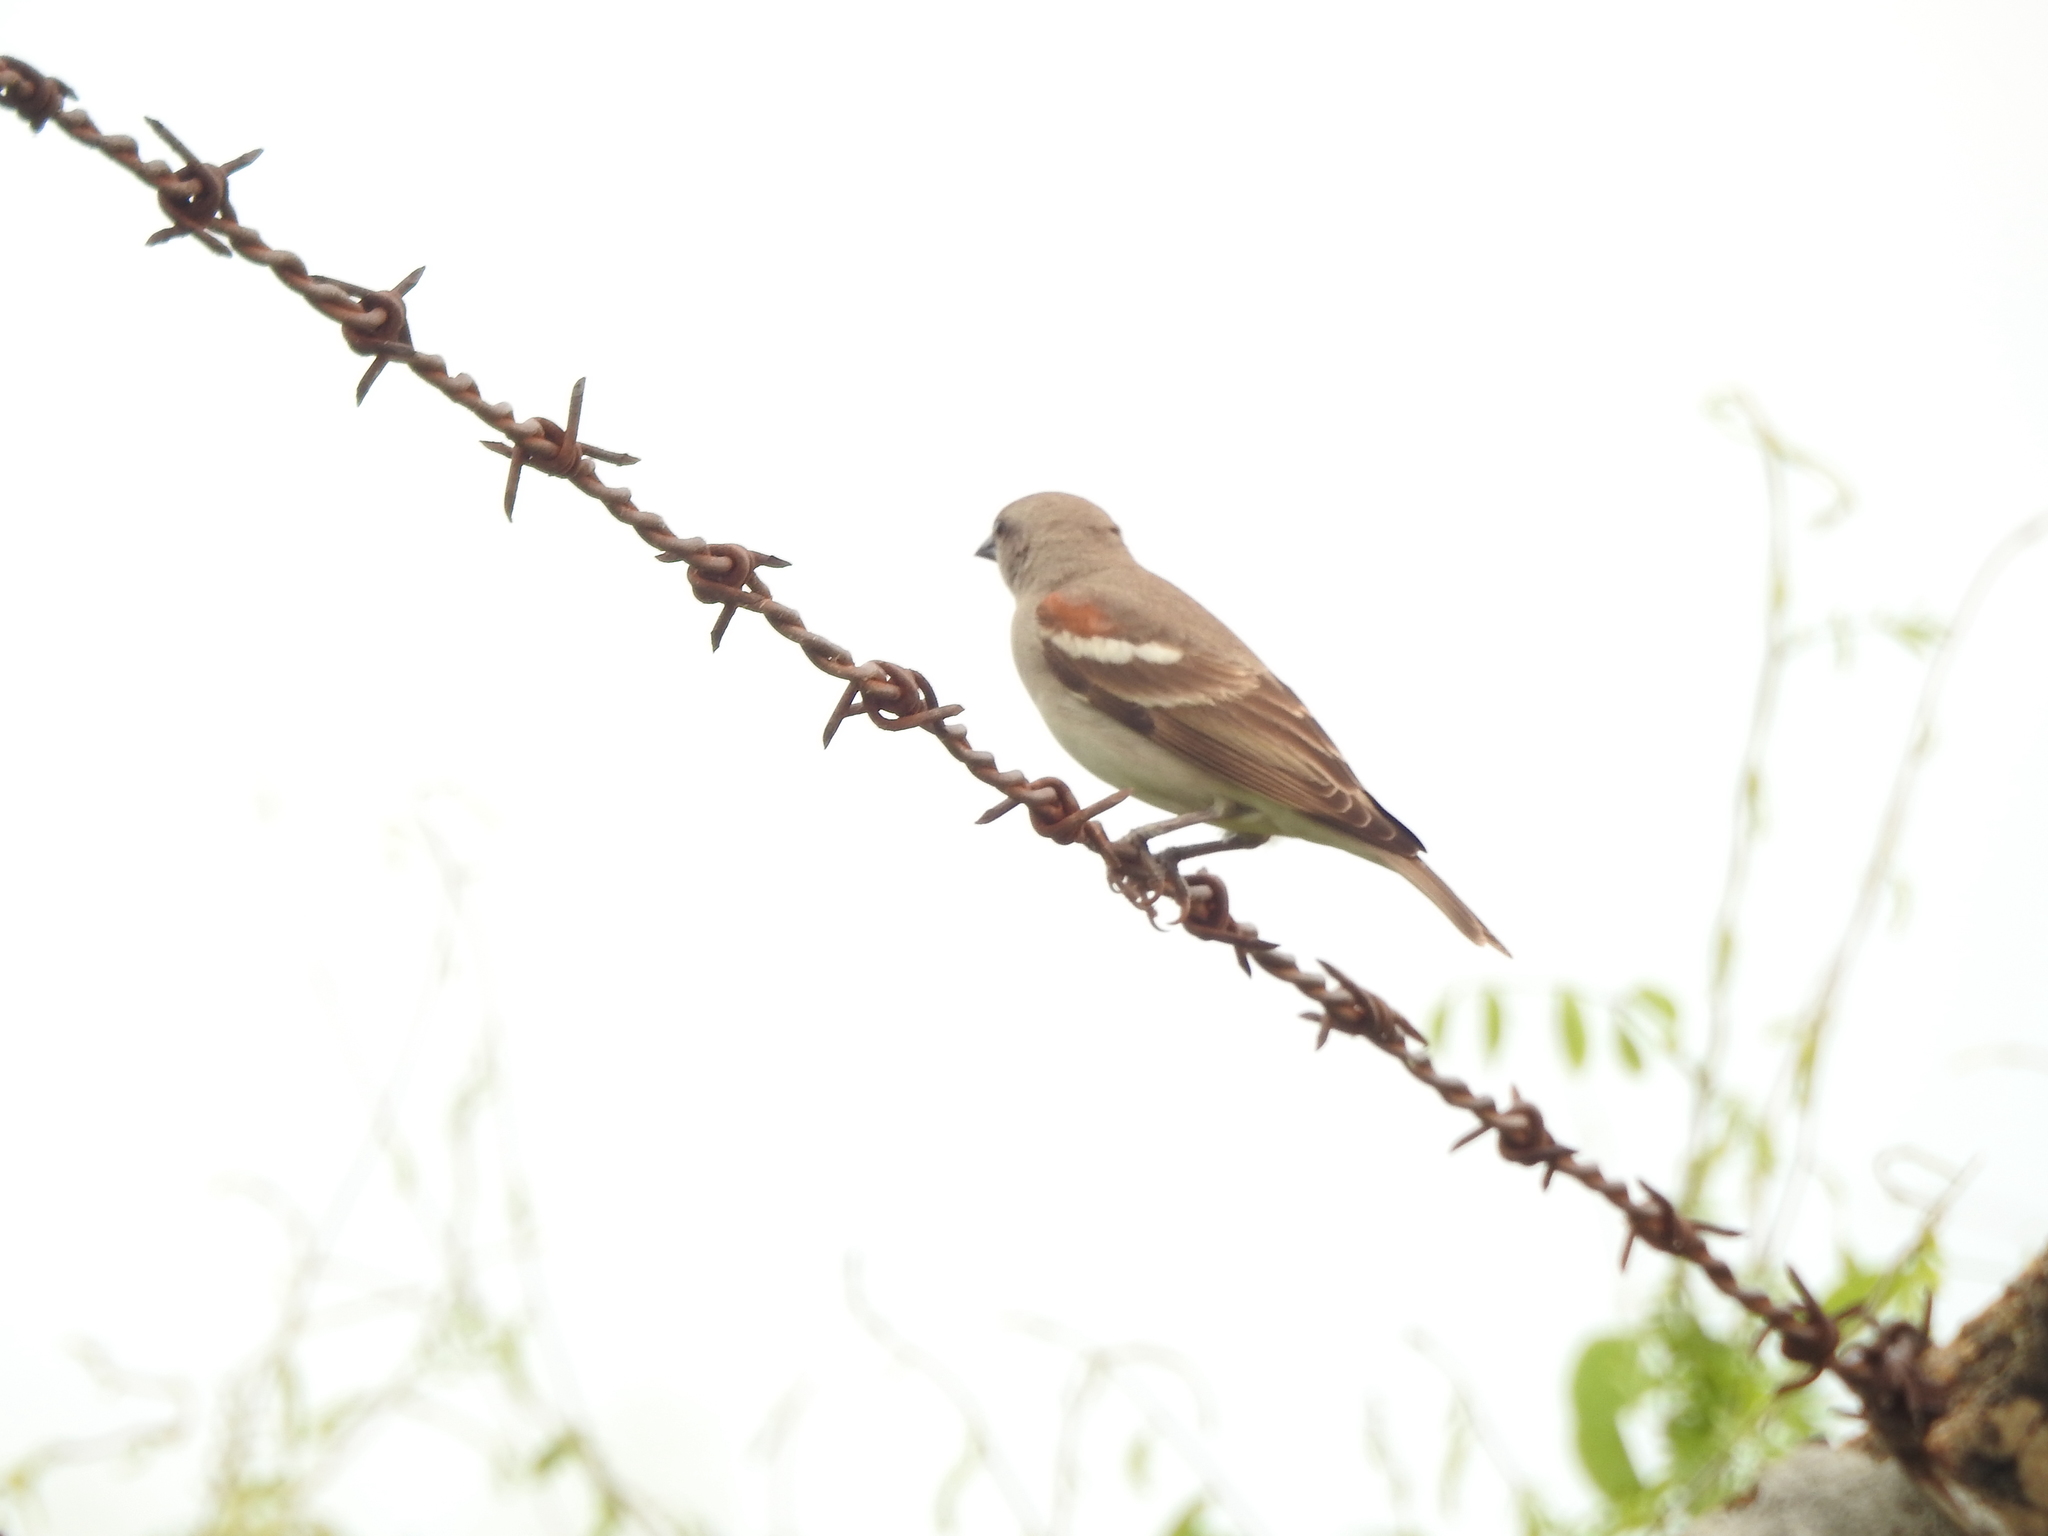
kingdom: Animalia
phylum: Chordata
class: Aves
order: Passeriformes
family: Passeridae
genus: Gymnoris
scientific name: Gymnoris xanthocollis
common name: Yellow-throated sparrow
